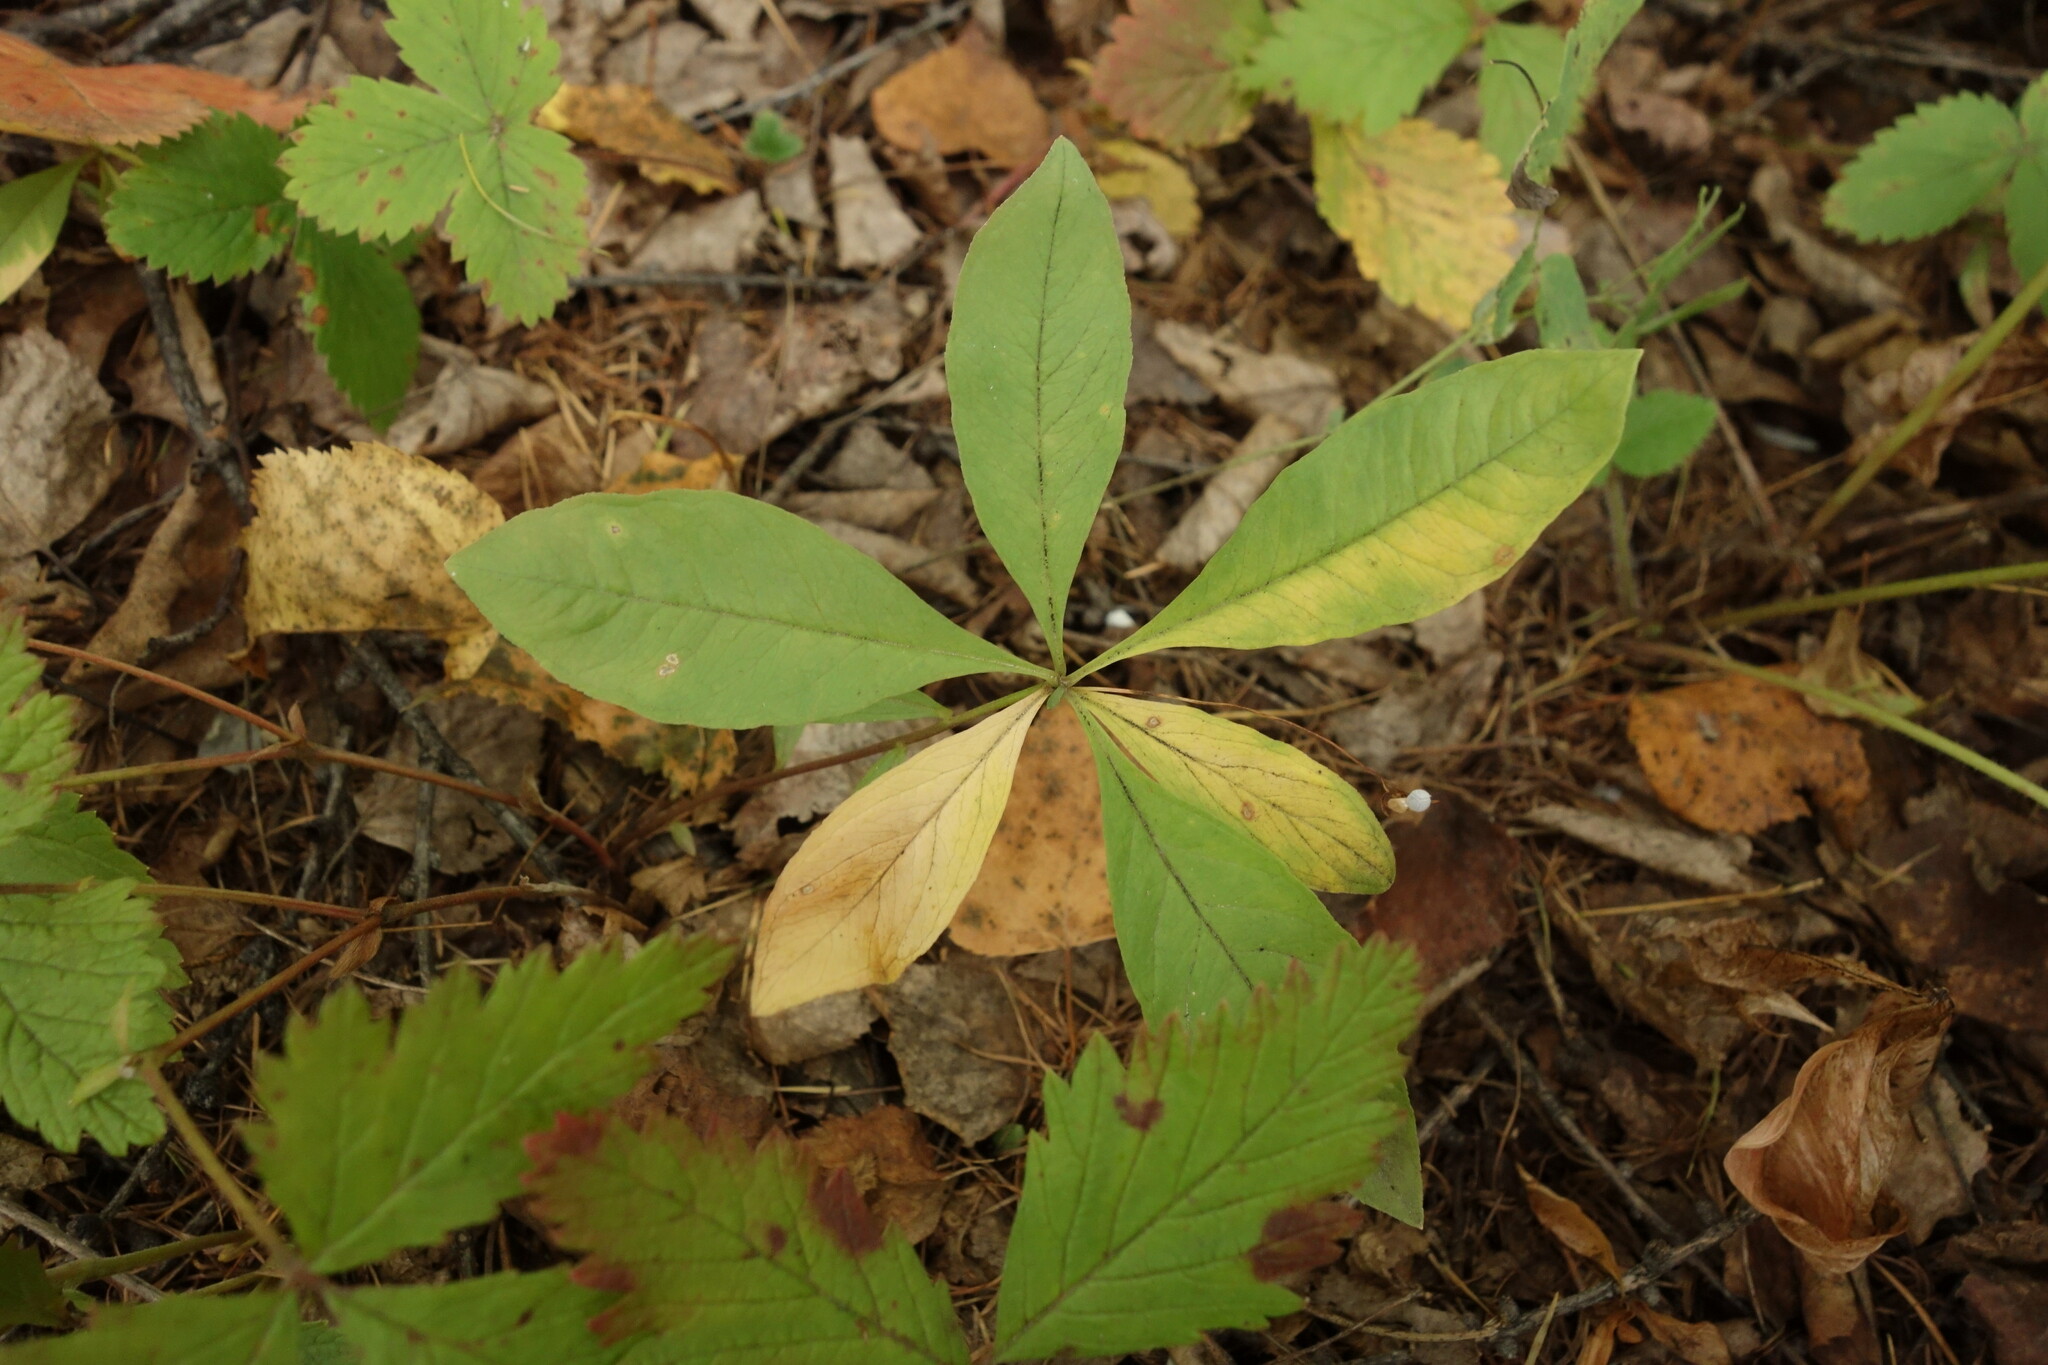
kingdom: Plantae
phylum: Tracheophyta
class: Magnoliopsida
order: Ericales
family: Primulaceae
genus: Lysimachia
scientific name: Lysimachia europaea
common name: Arctic starflower
